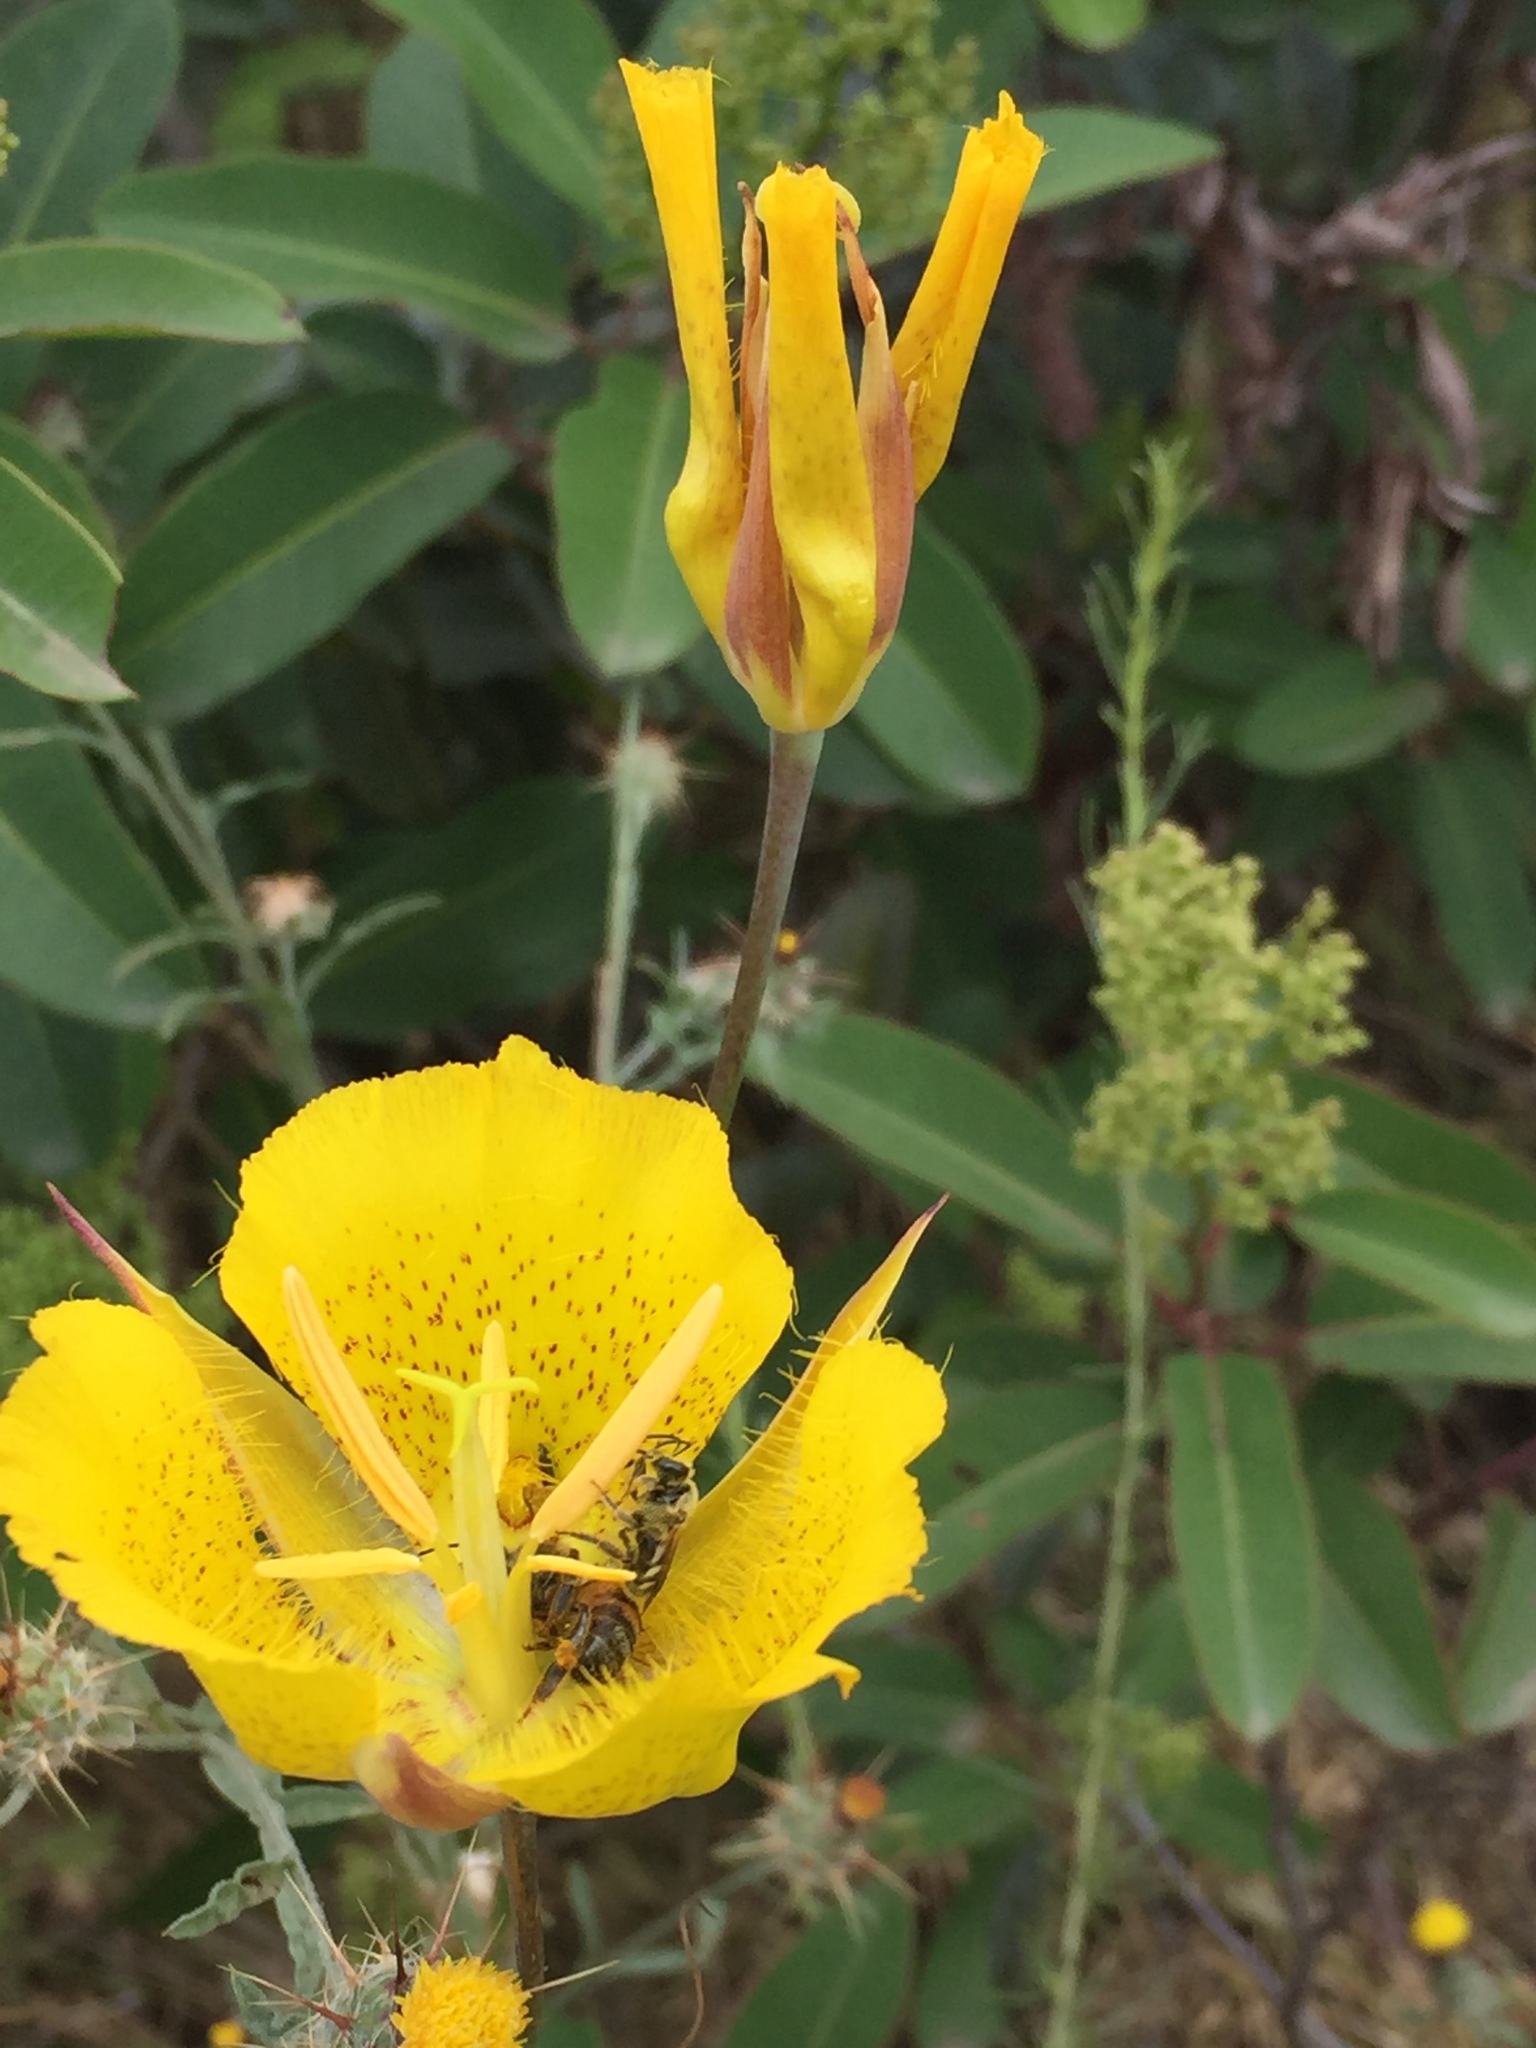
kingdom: Plantae
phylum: Tracheophyta
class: Liliopsida
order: Liliales
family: Liliaceae
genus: Calochortus
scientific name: Calochortus weedii
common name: Weed's mariposa-lily
